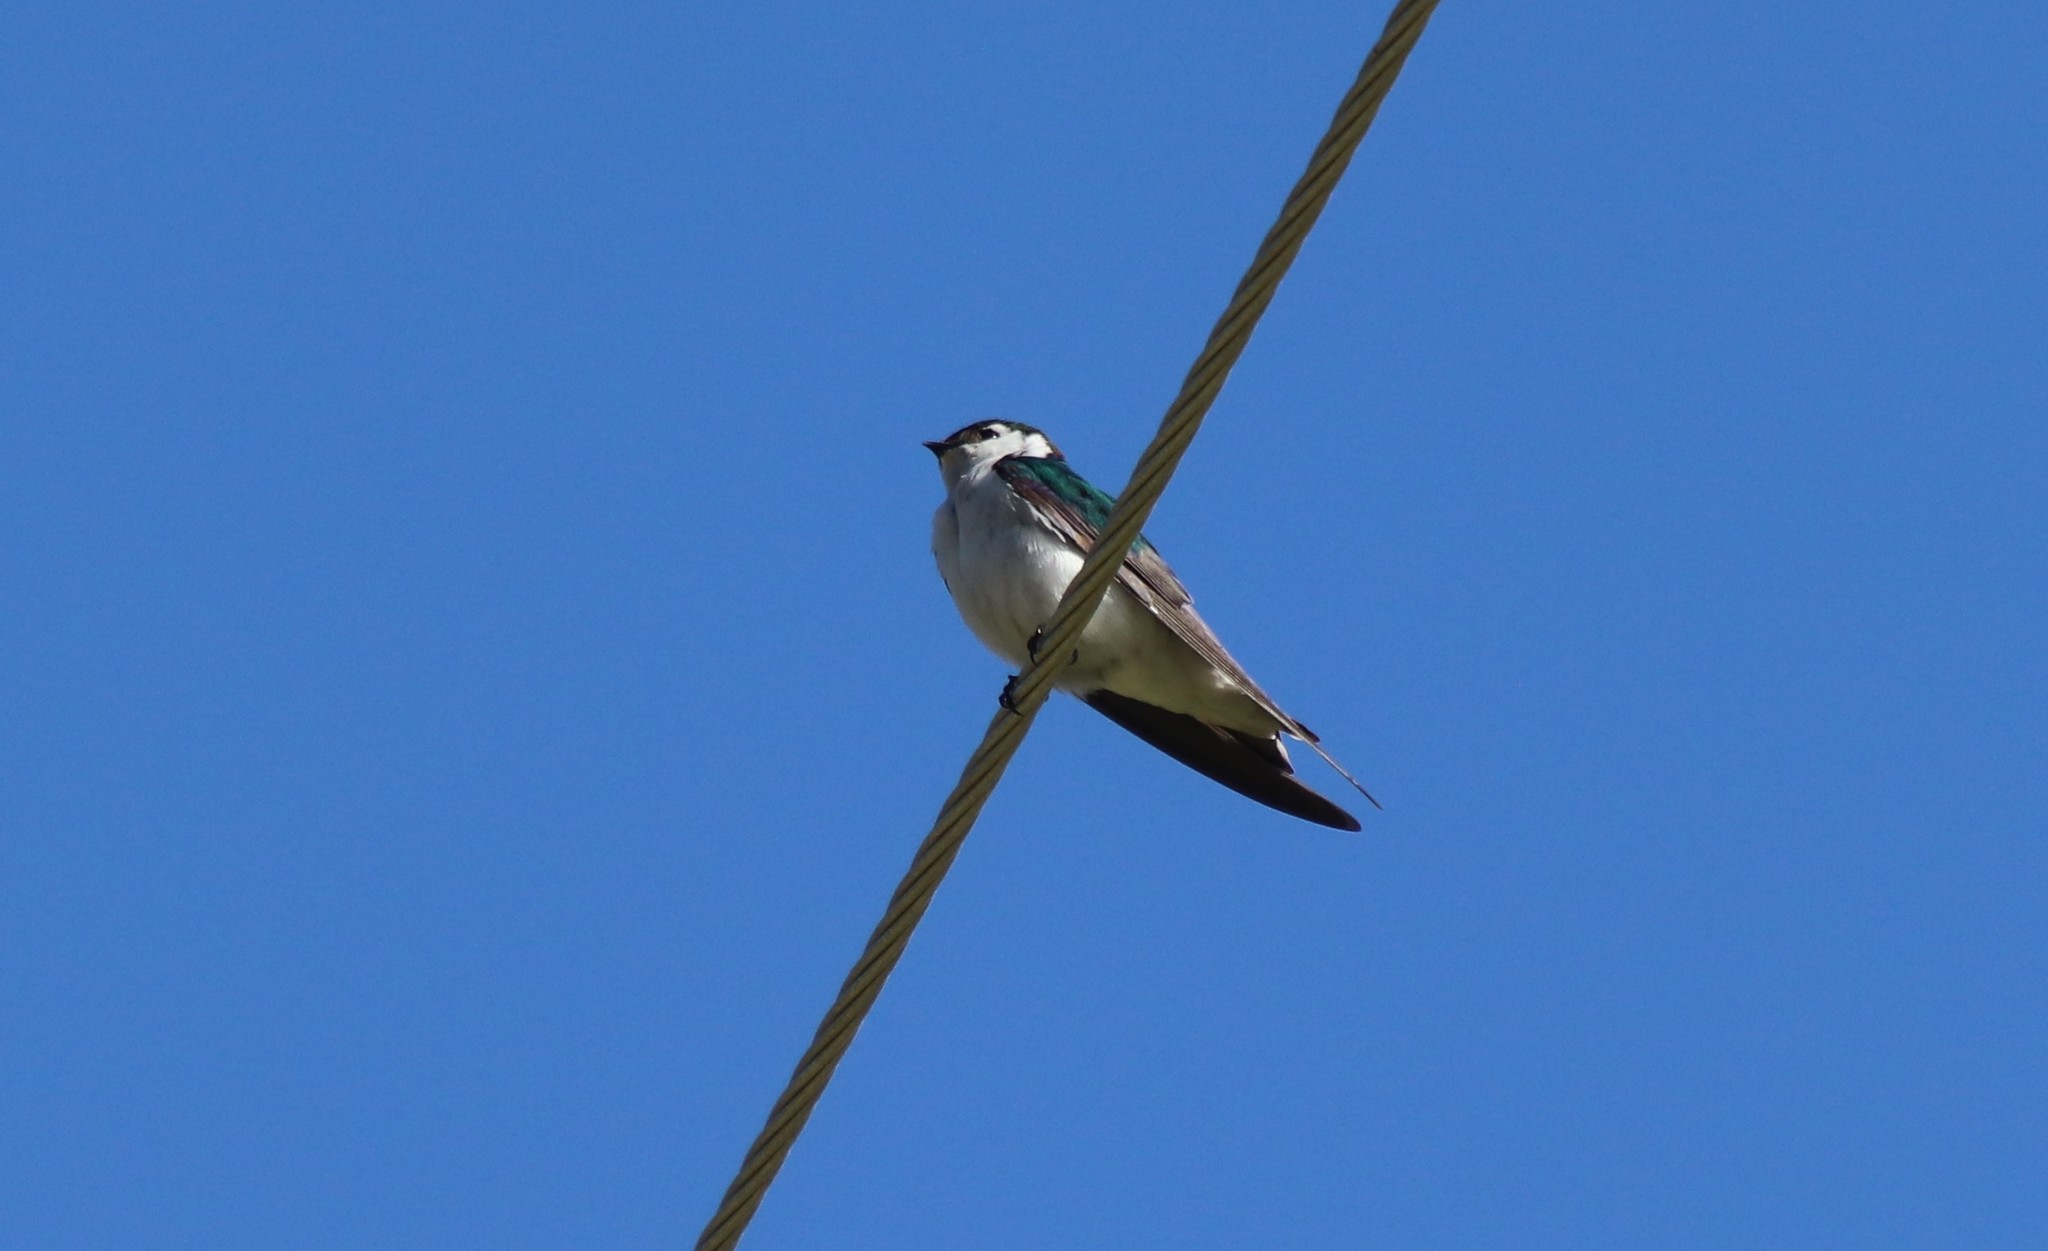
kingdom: Animalia
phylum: Chordata
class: Aves
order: Passeriformes
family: Hirundinidae
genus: Tachycineta
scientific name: Tachycineta thalassina
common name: Violet-green swallow
